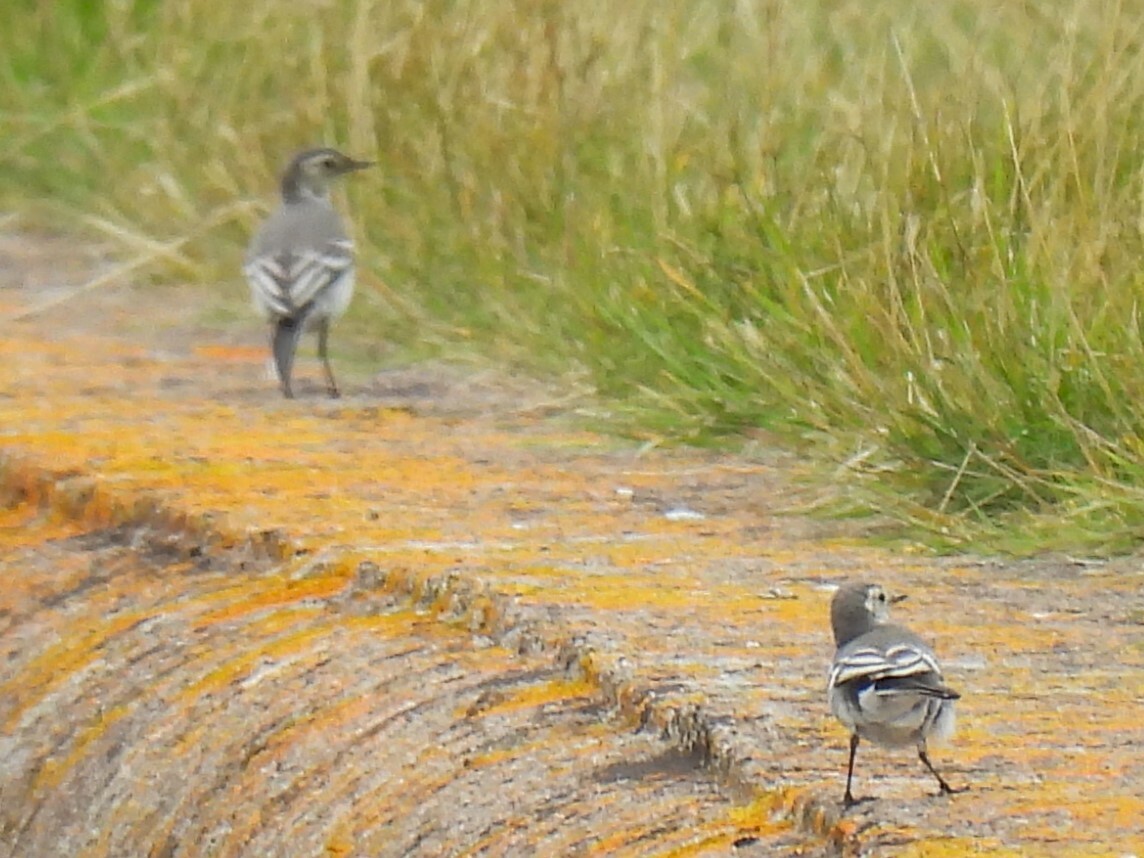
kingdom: Animalia
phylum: Chordata
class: Aves
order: Passeriformes
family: Motacillidae
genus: Motacilla
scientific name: Motacilla alba
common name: White wagtail
